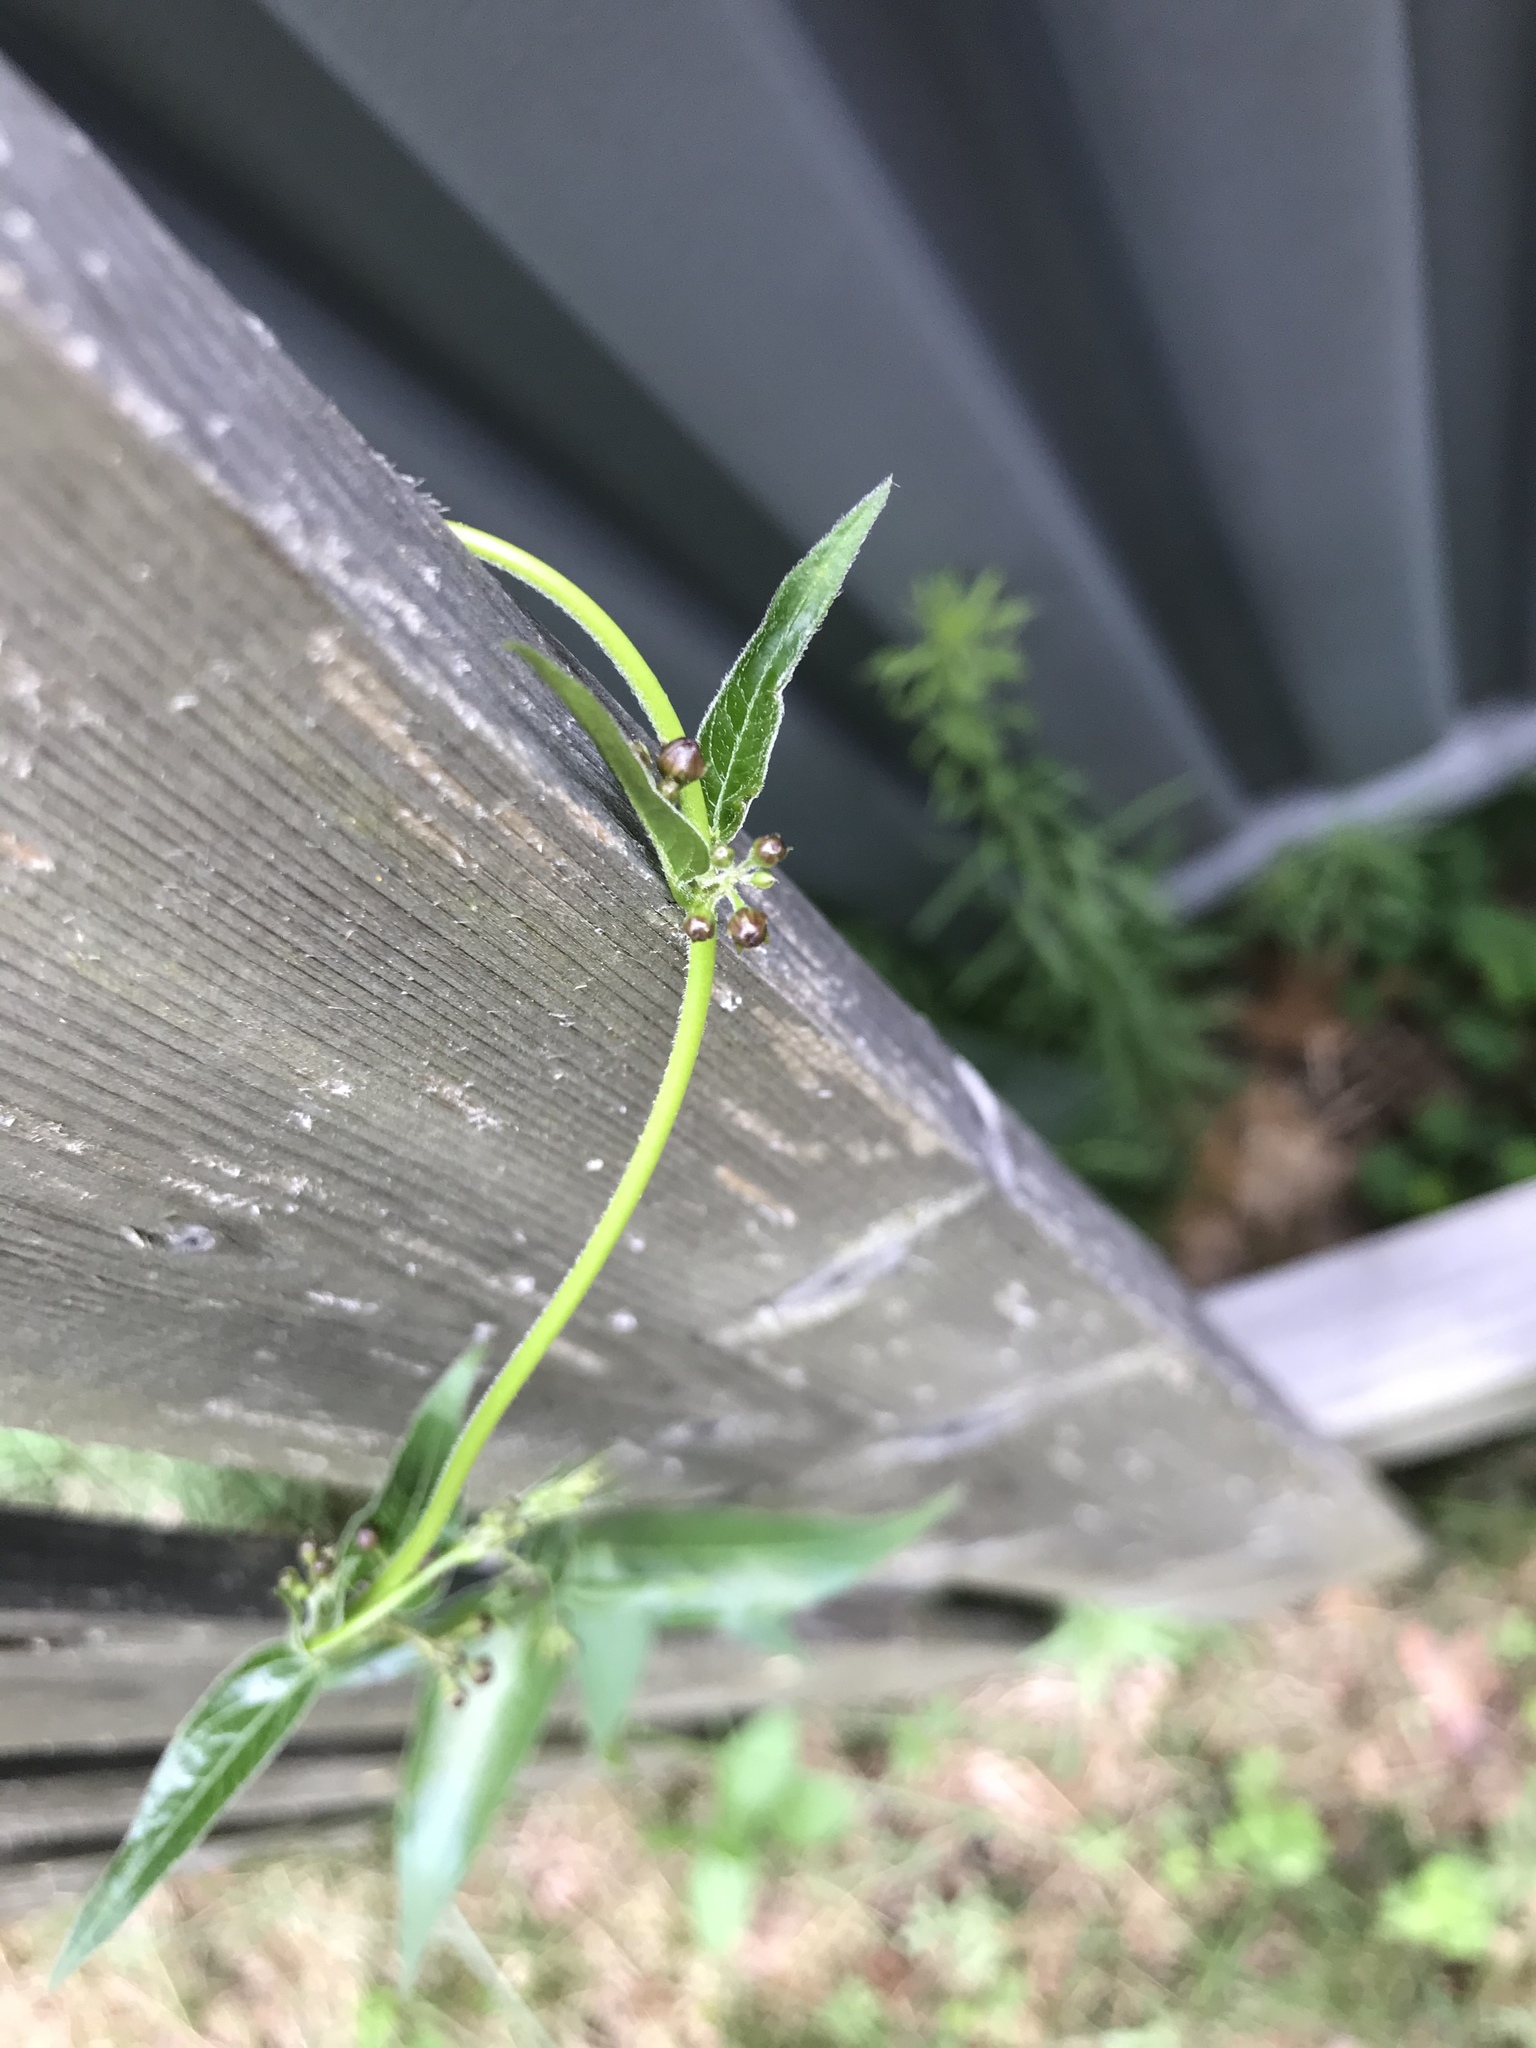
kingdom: Plantae
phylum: Tracheophyta
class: Magnoliopsida
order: Gentianales
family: Apocynaceae
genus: Vincetoxicum
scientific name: Vincetoxicum nigrum
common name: Black swallow-wort
